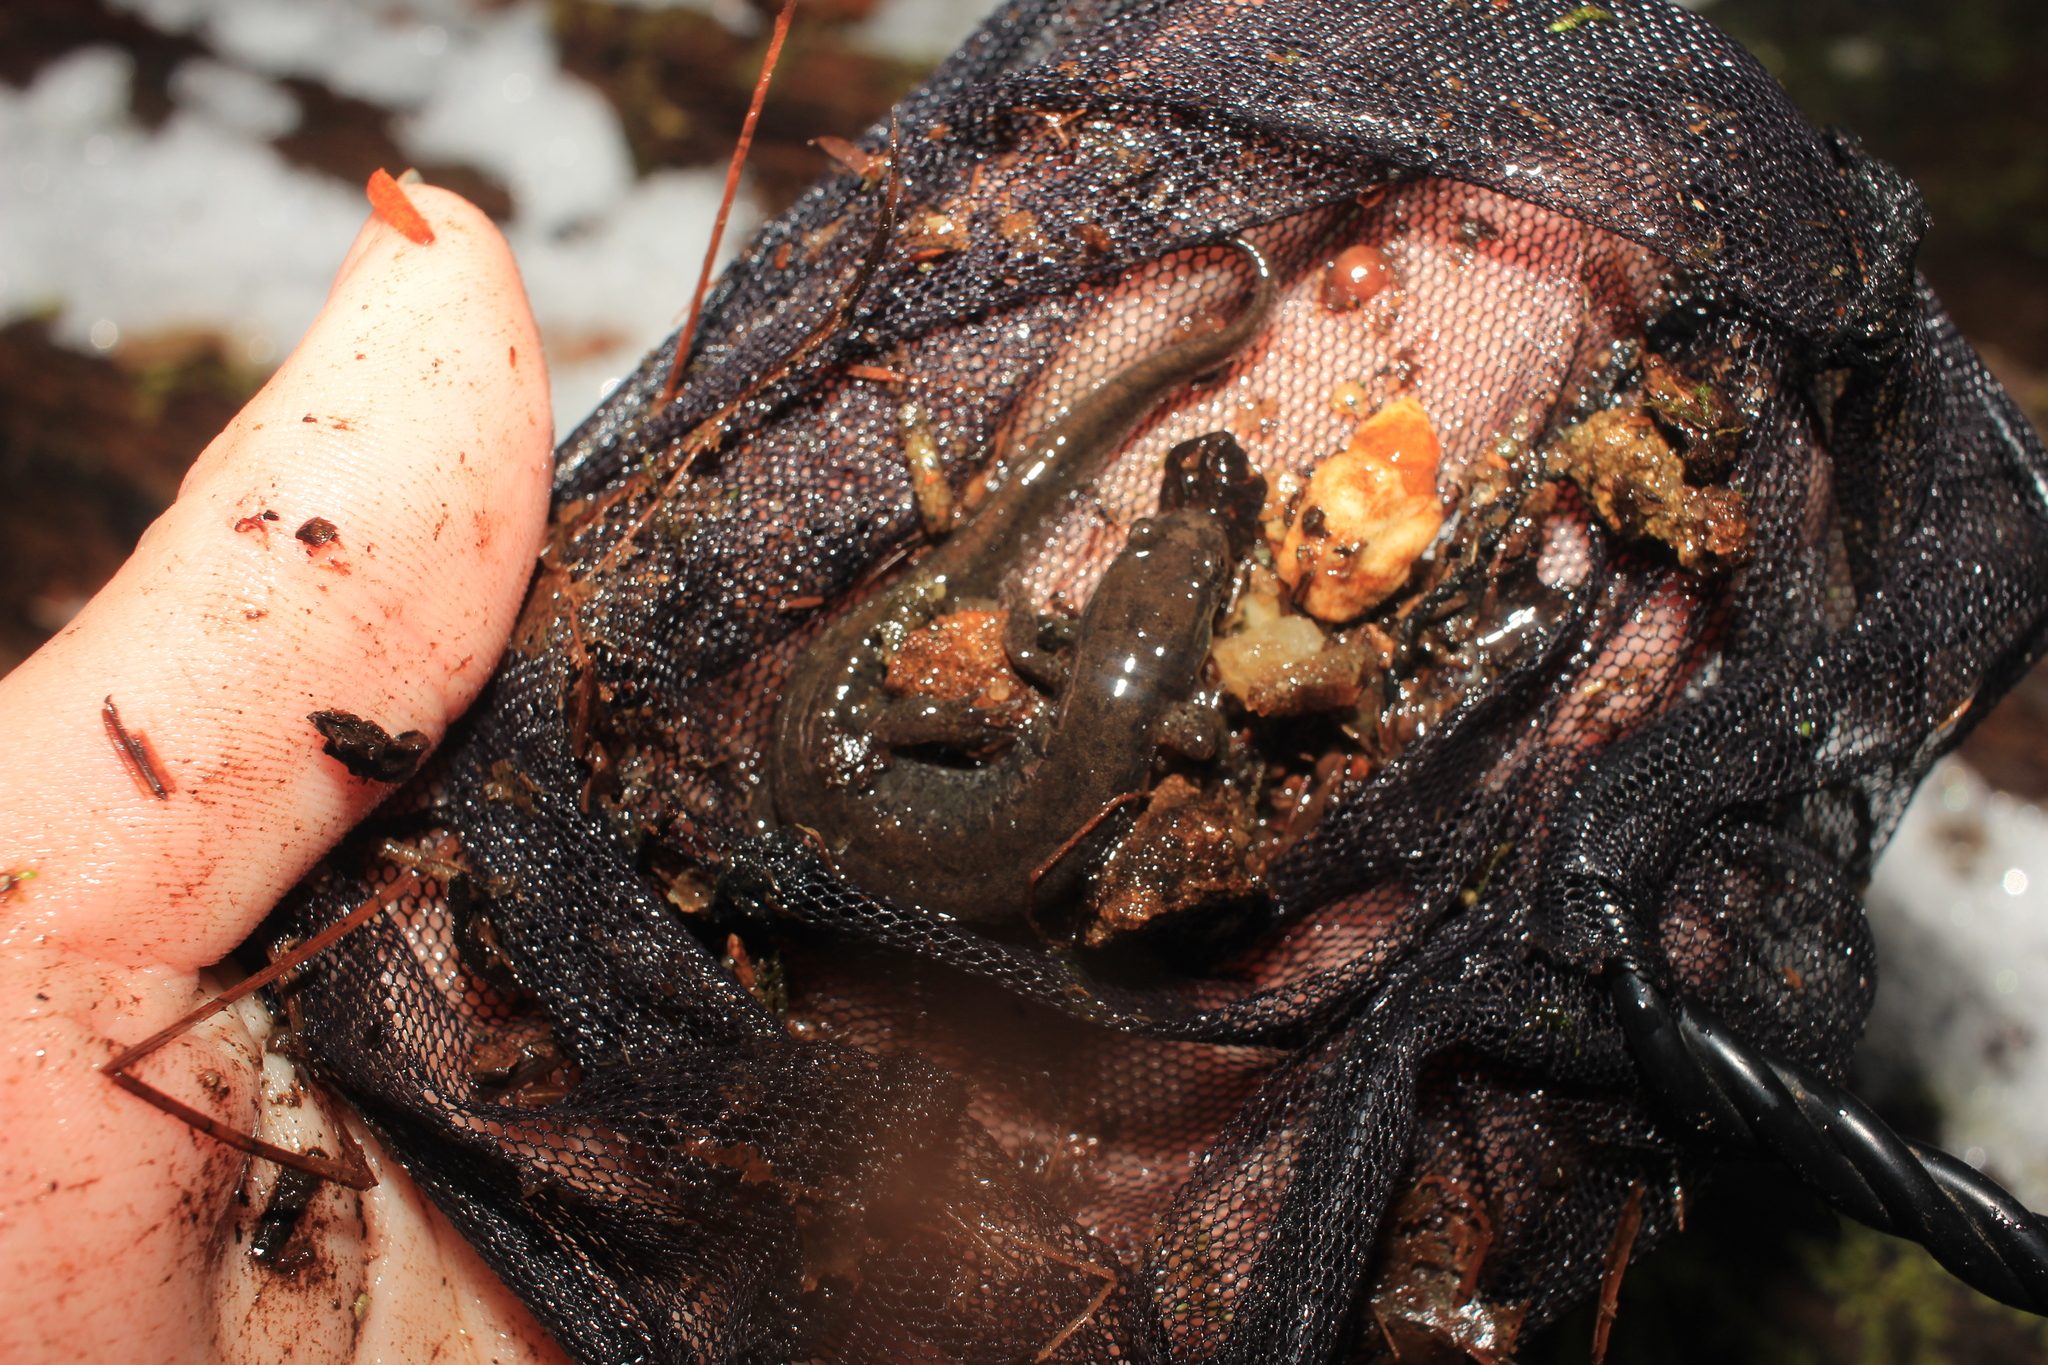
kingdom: Animalia
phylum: Chordata
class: Amphibia
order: Caudata
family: Plethodontidae
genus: Desmognathus
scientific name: Desmognathus fuscus
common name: Northern dusky salamander
